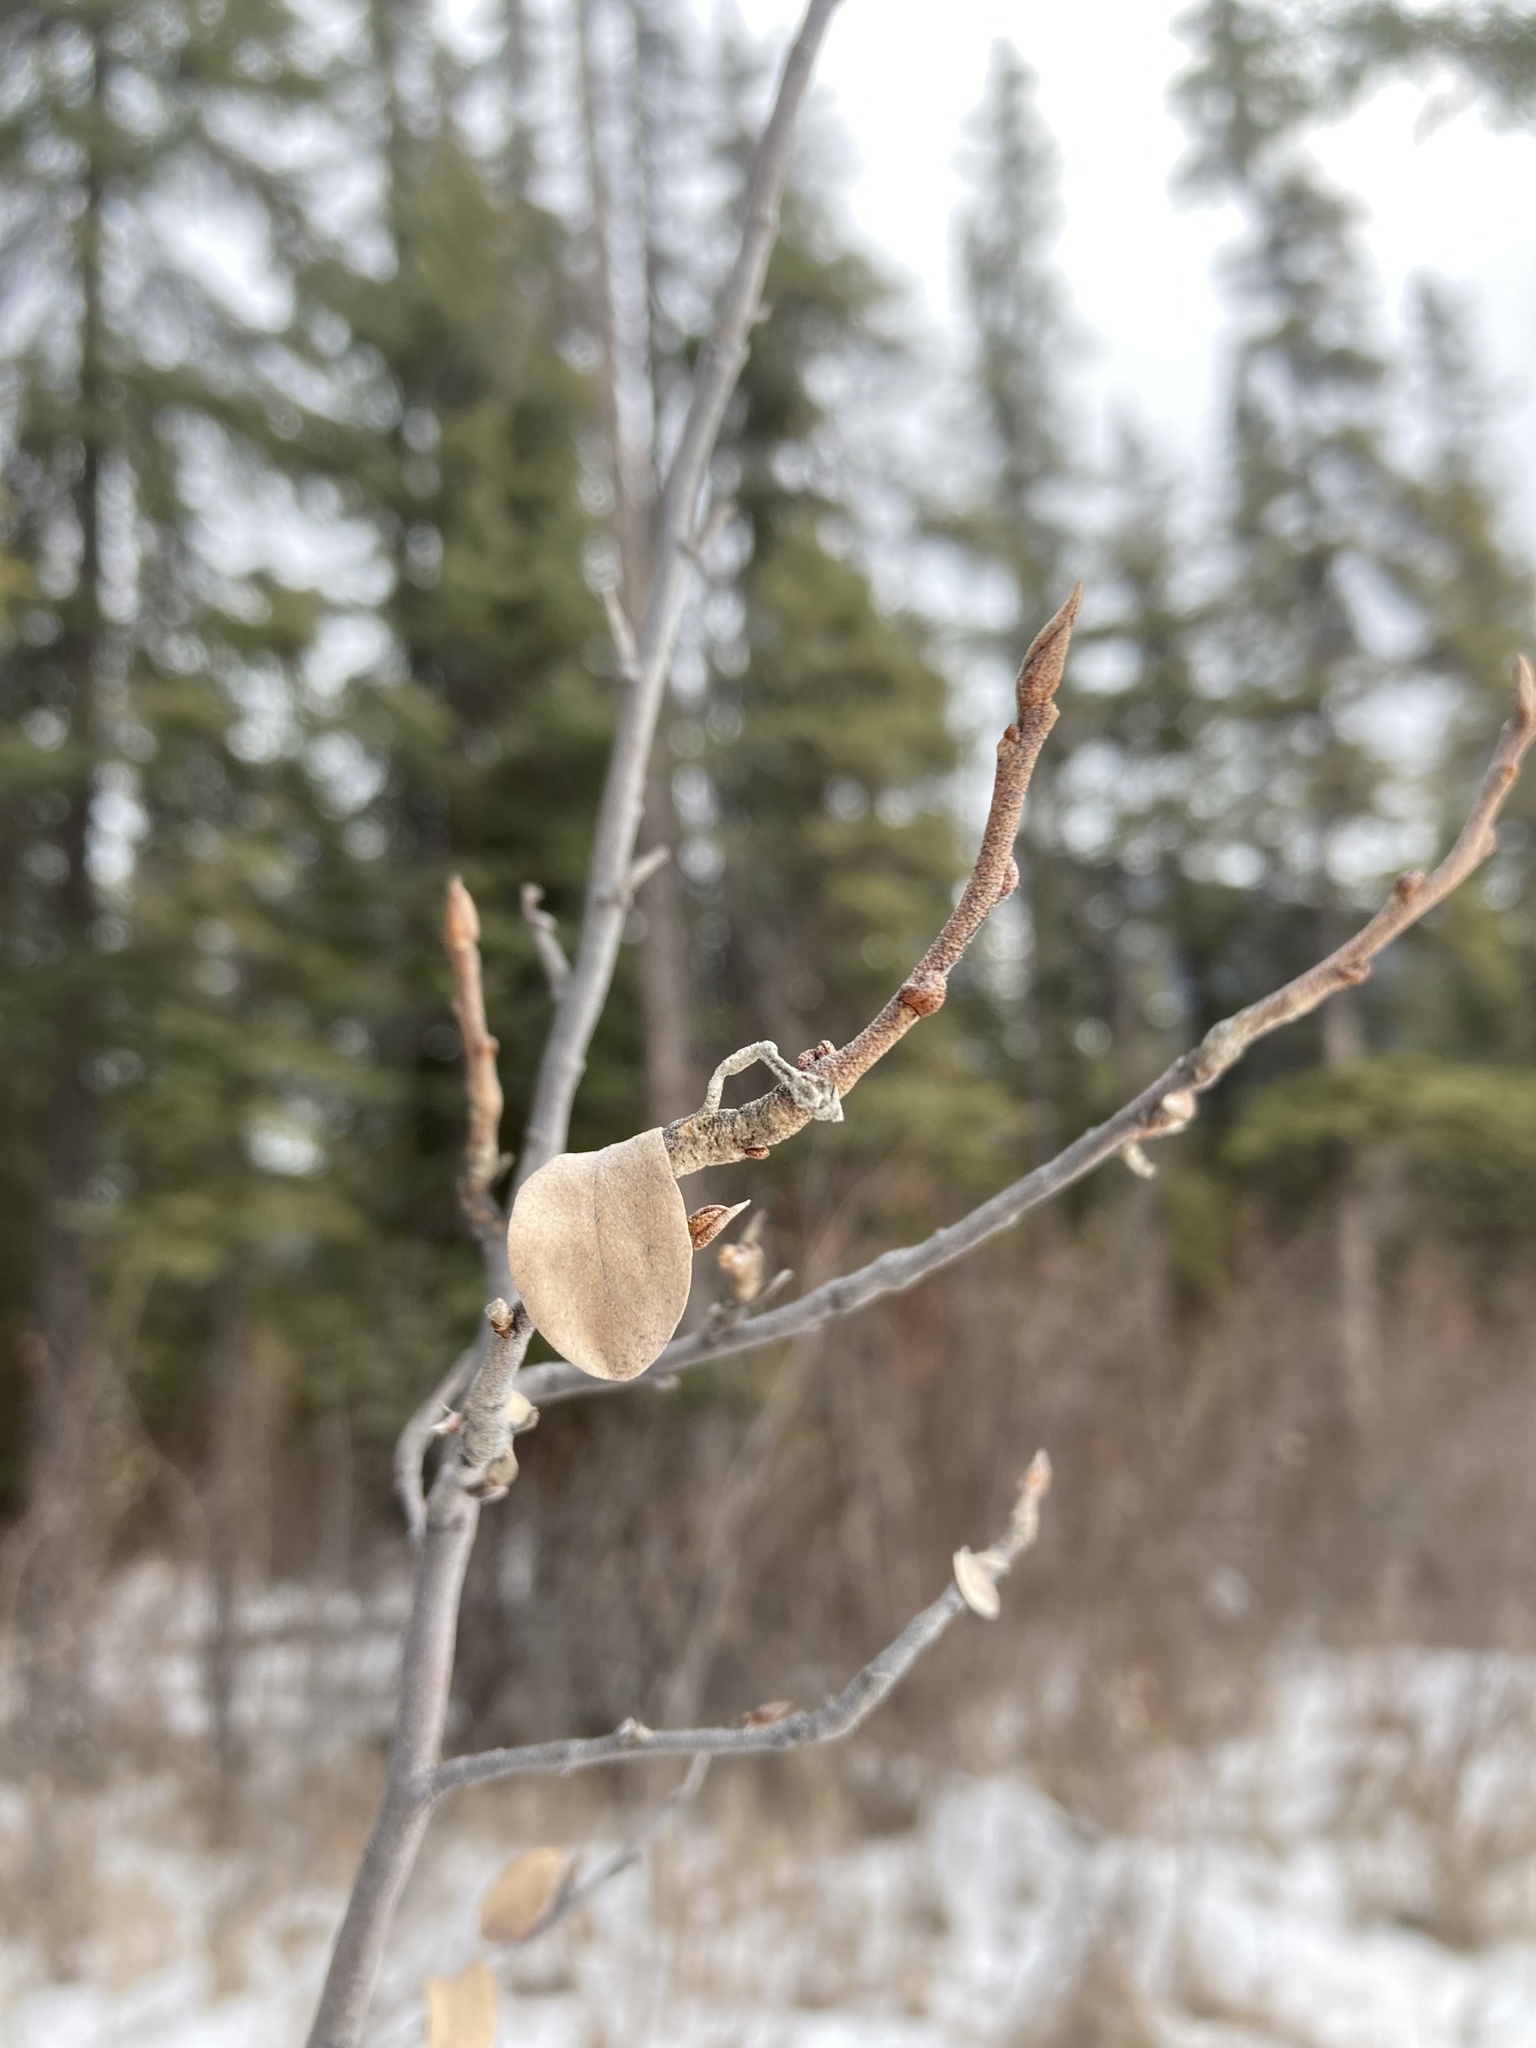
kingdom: Plantae
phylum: Tracheophyta
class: Magnoliopsida
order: Rosales
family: Elaeagnaceae
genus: Elaeagnus
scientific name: Elaeagnus commutata
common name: Silverberry
